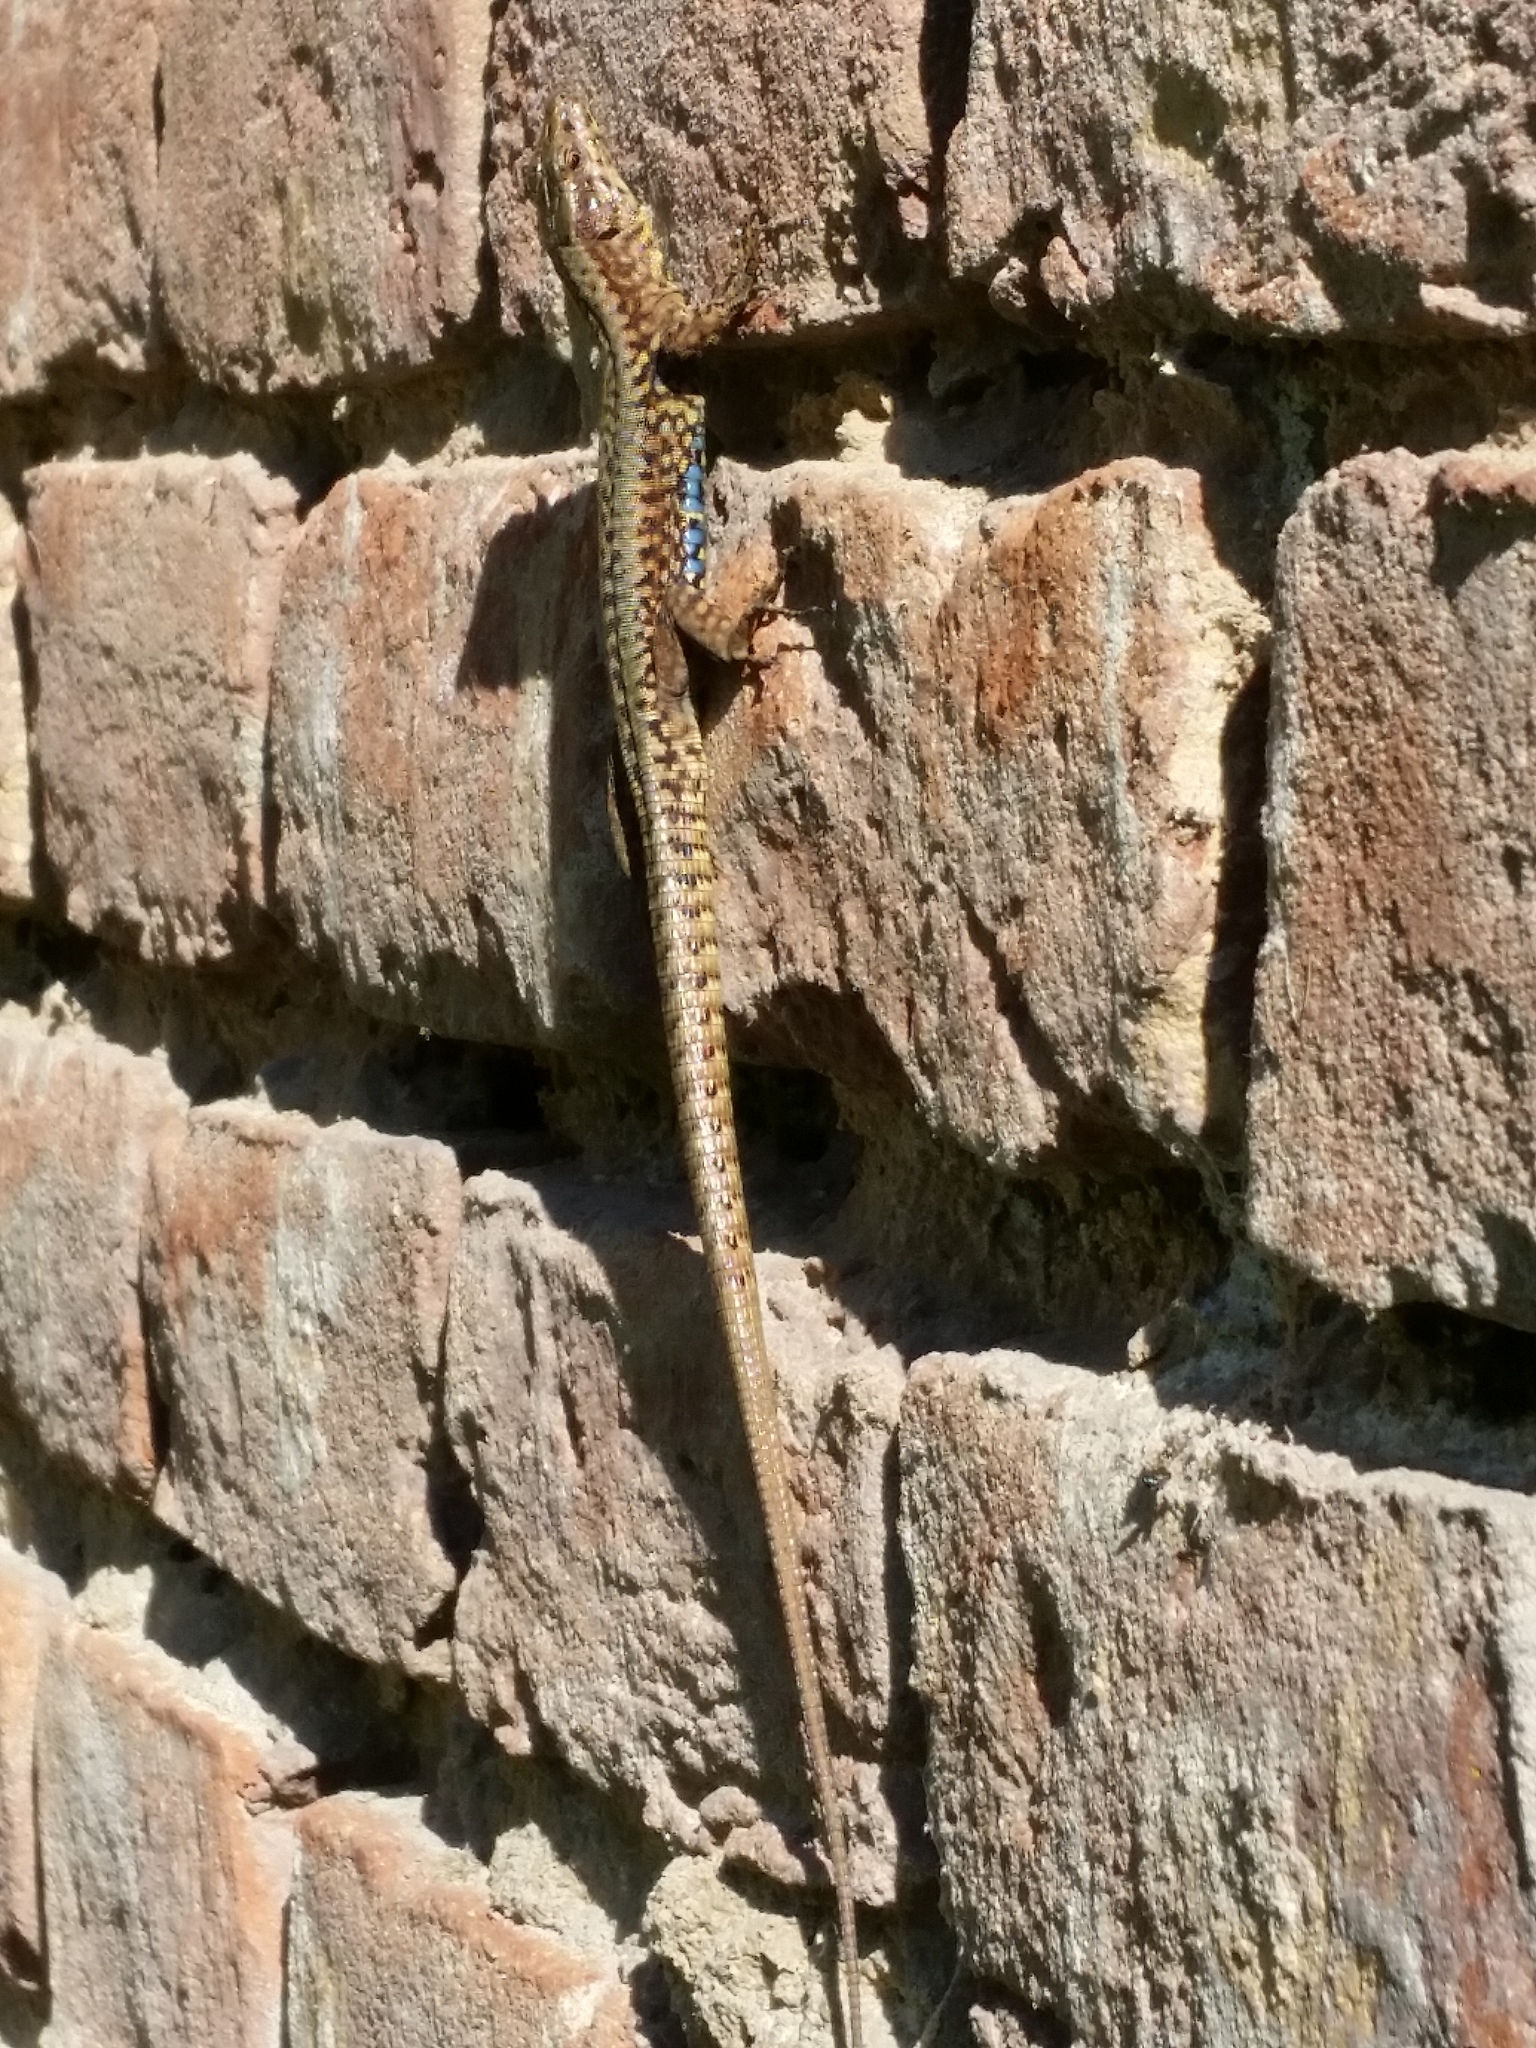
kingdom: Animalia
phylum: Chordata
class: Squamata
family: Lacertidae
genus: Podarcis
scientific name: Podarcis muralis
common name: Common wall lizard
